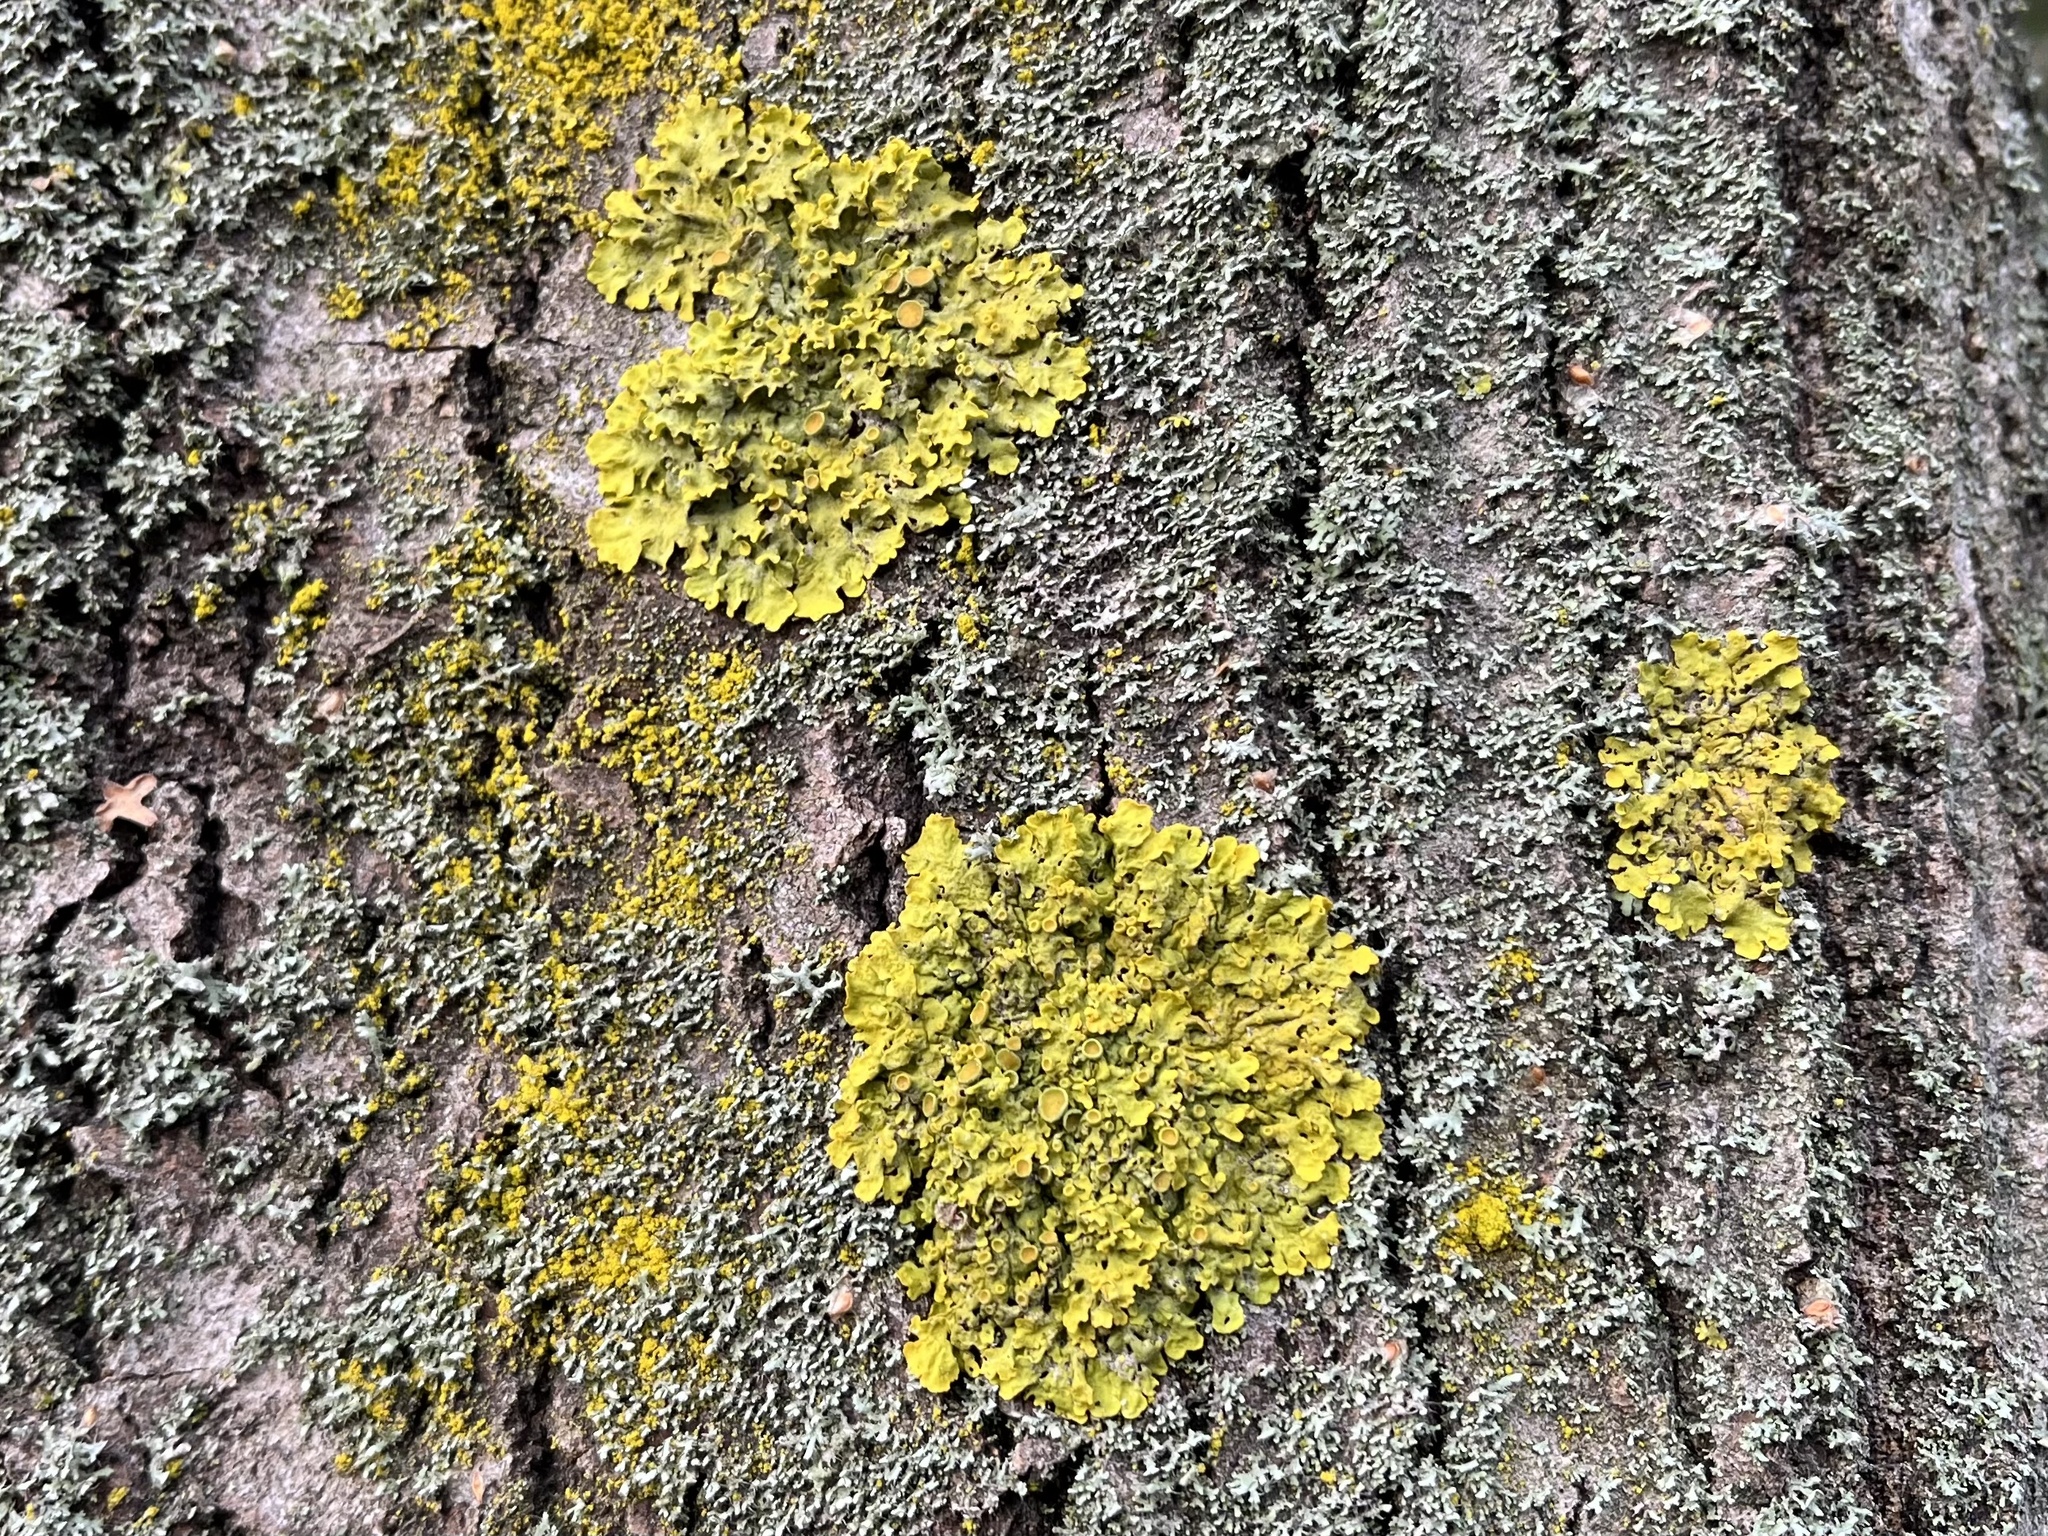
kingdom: Fungi
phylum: Ascomycota
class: Lecanoromycetes
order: Teloschistales
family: Teloschistaceae
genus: Xanthoria
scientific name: Xanthoria parietina
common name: Common orange lichen
